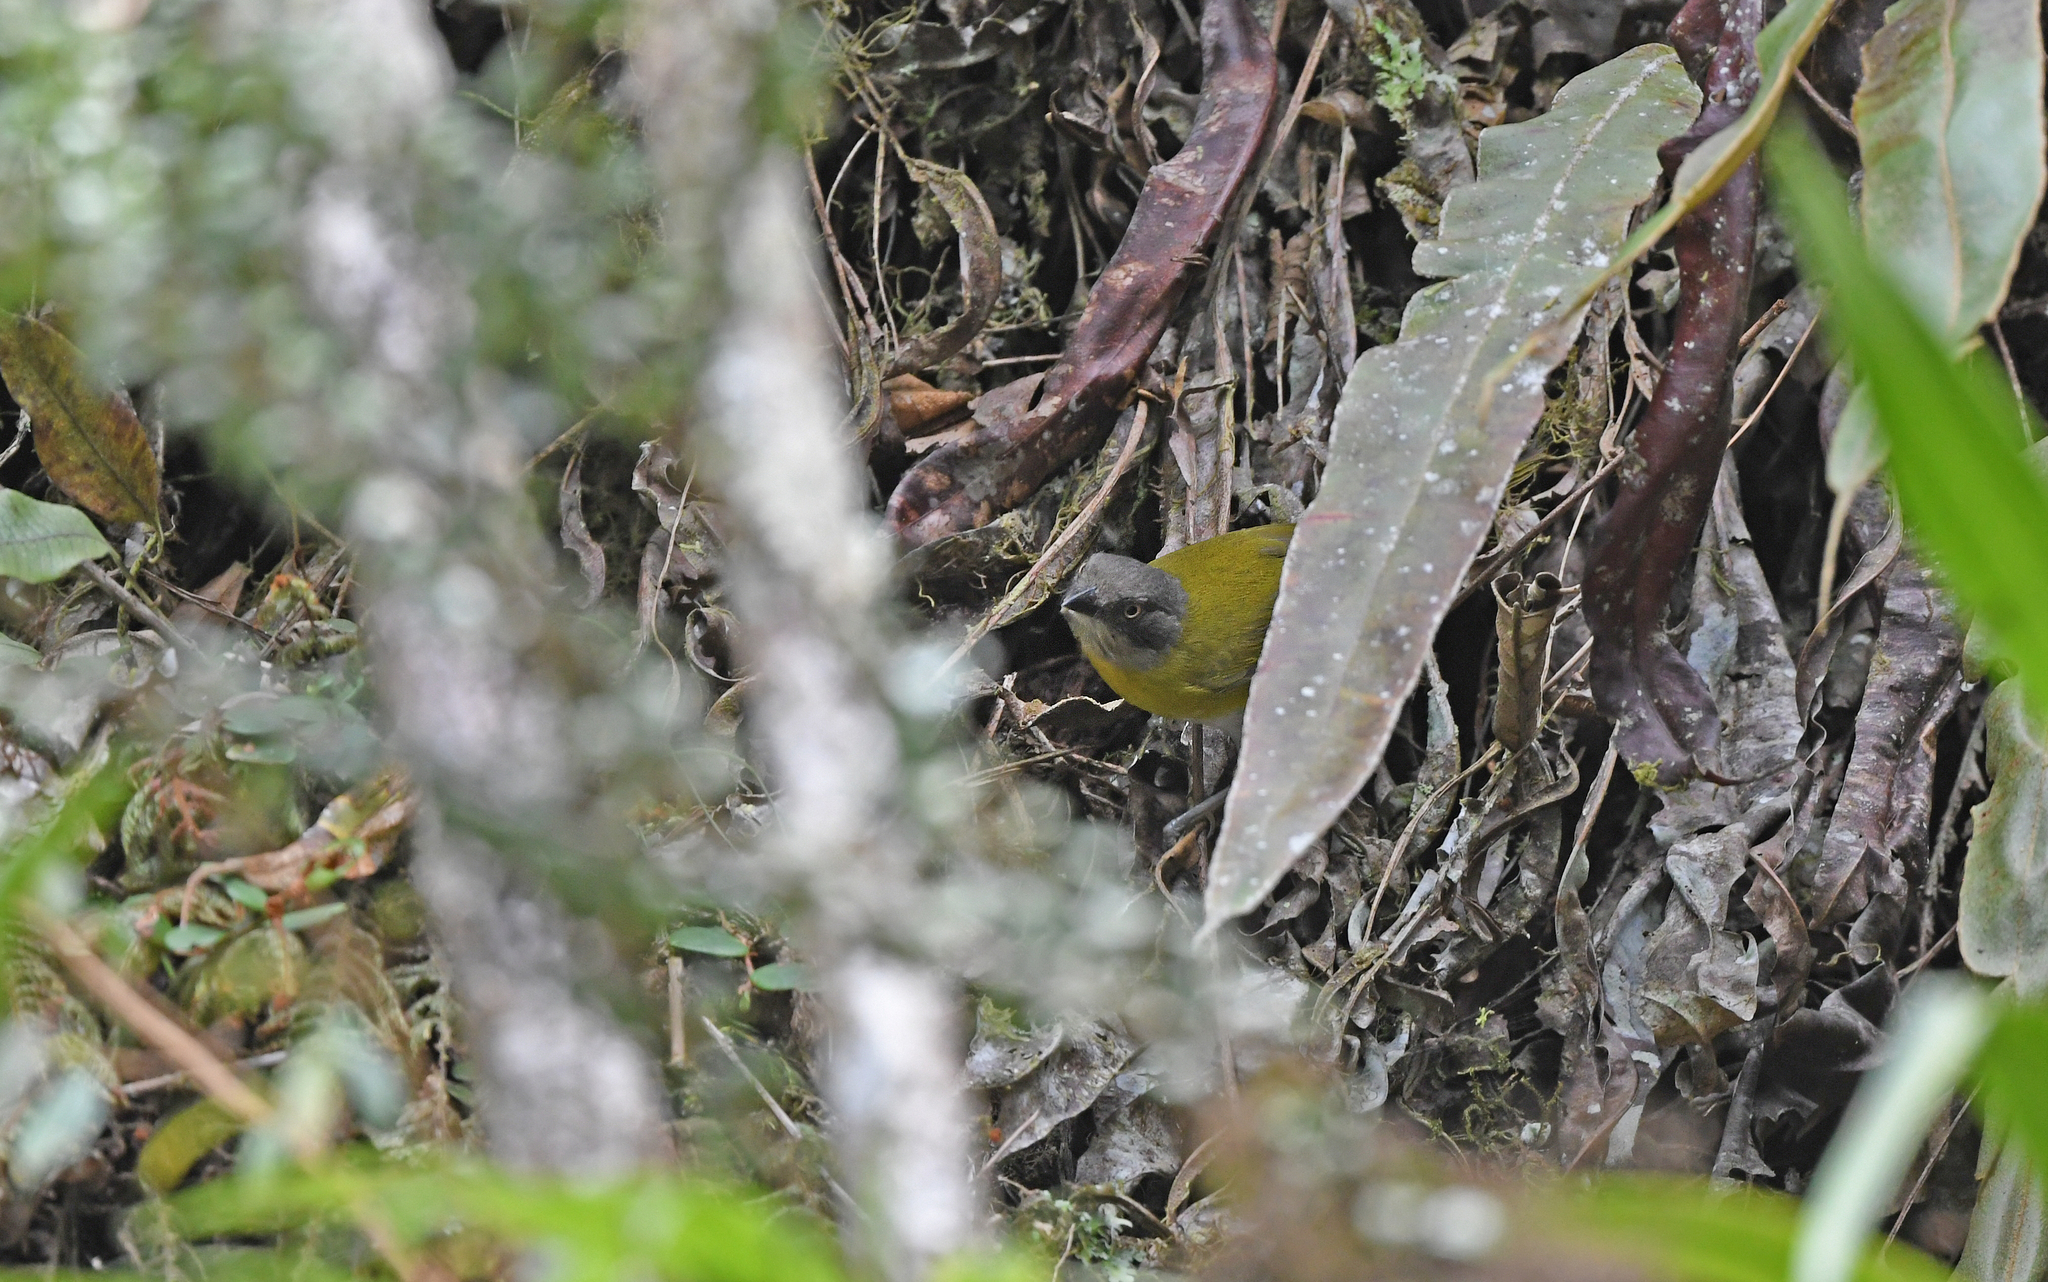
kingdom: Animalia
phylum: Chordata
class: Aves
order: Passeriformes
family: Passerellidae
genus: Chlorospingus
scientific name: Chlorospingus flavopectus
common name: Common chlorospingus
